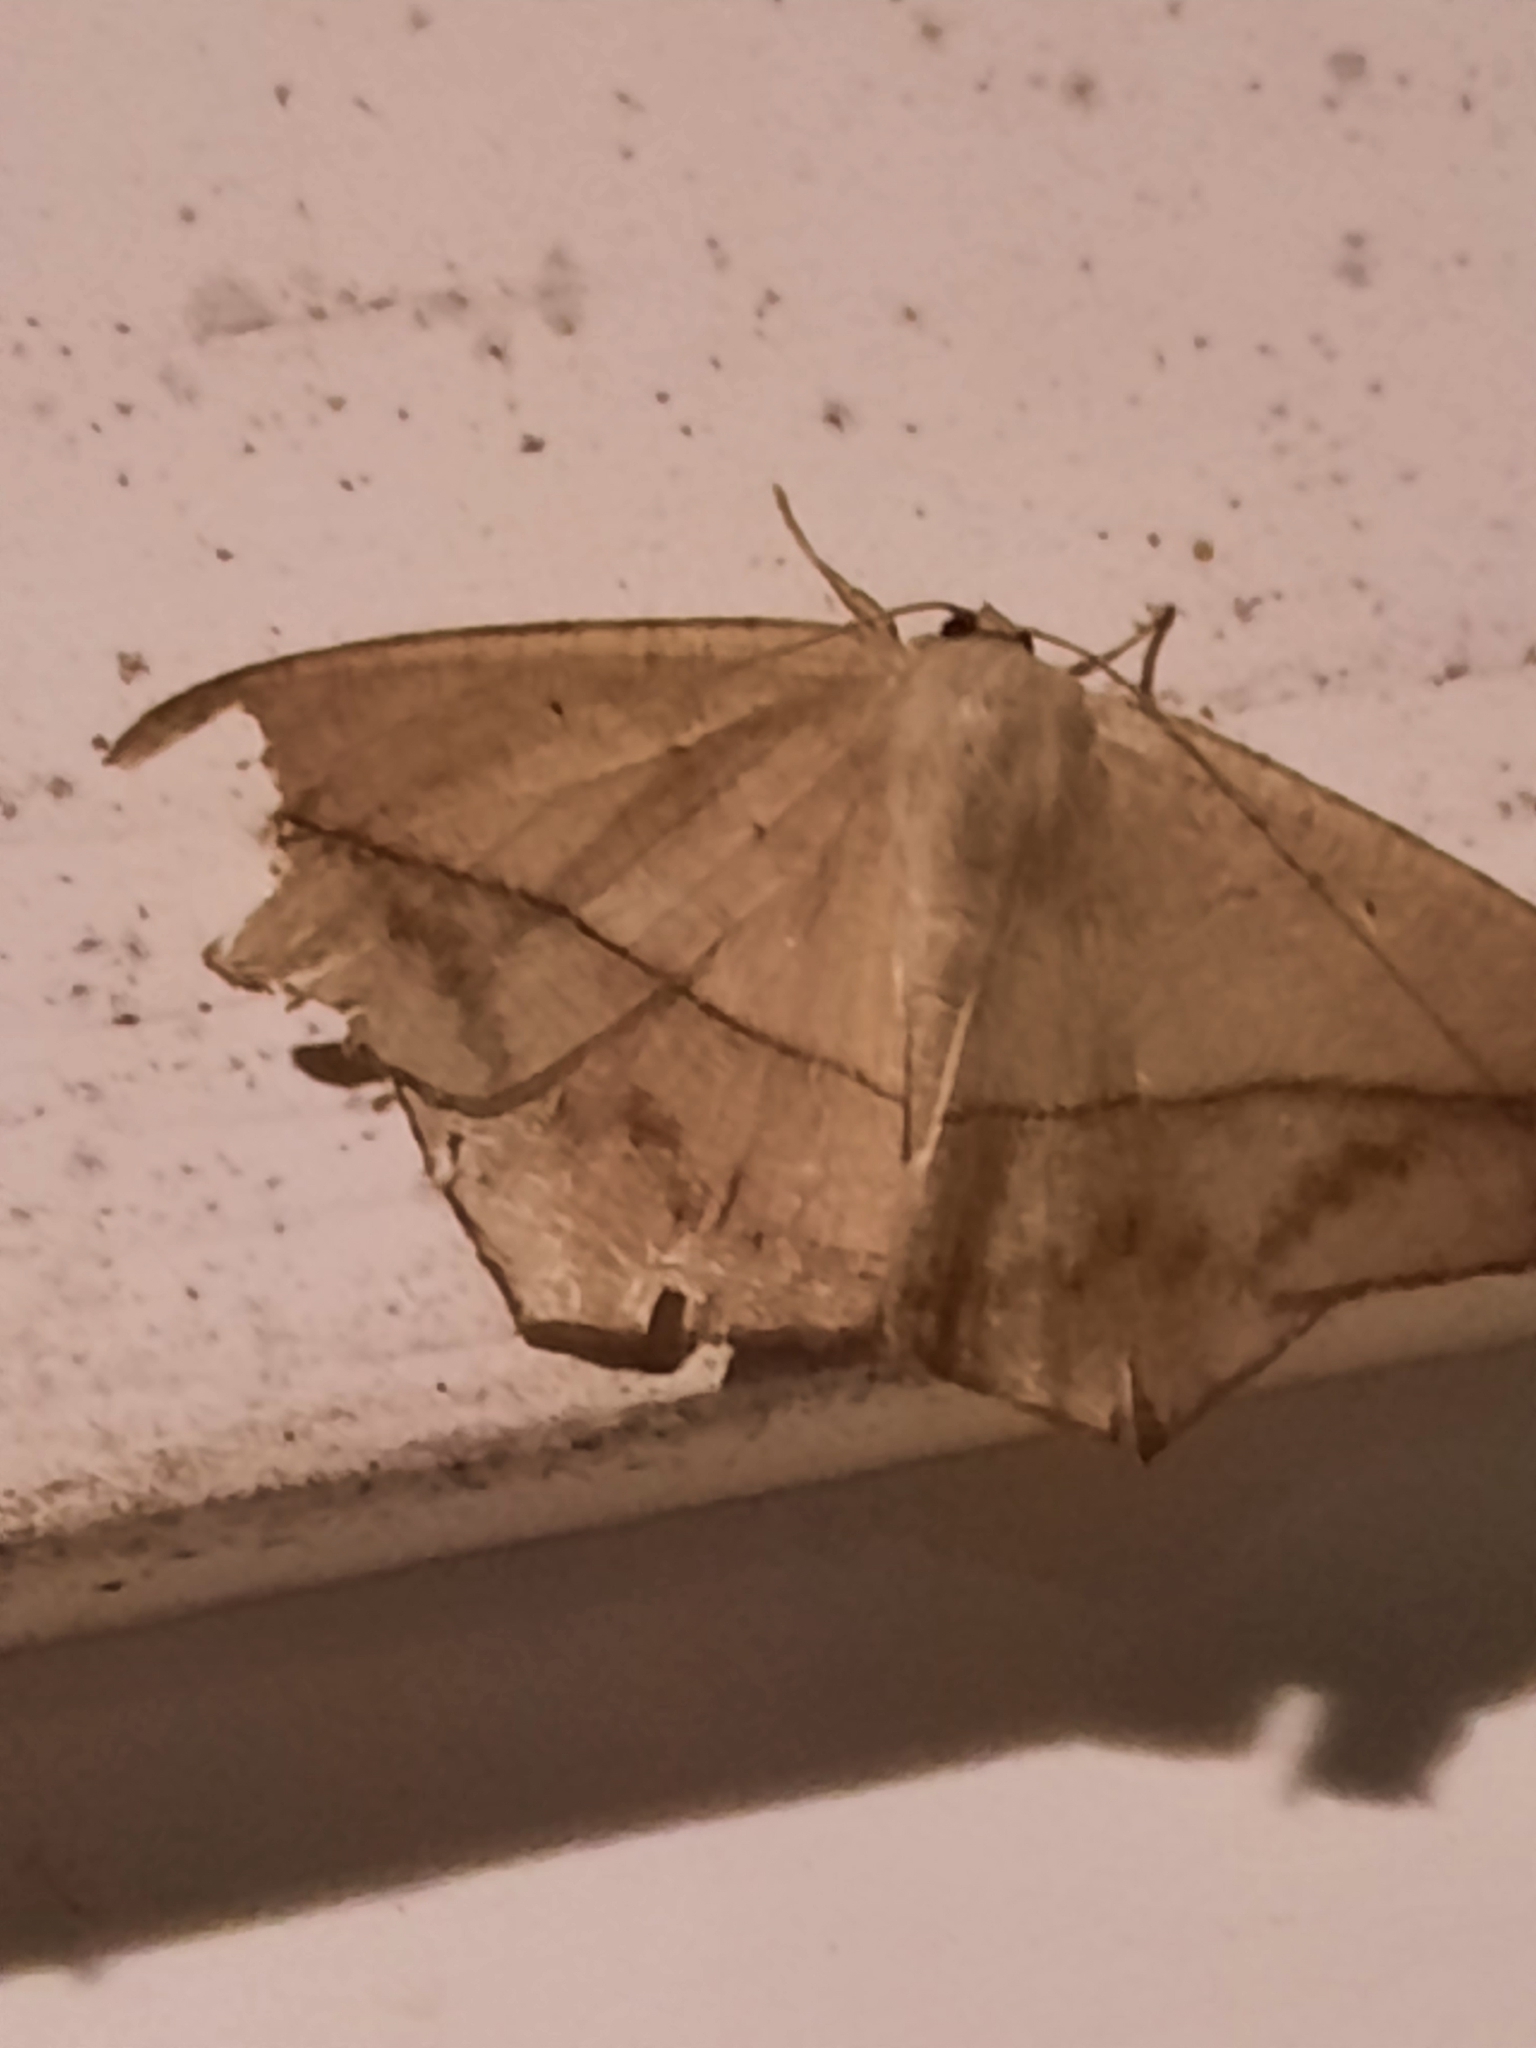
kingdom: Animalia
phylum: Arthropoda
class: Insecta
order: Lepidoptera
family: Geometridae
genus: Prochoerodes
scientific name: Prochoerodes lineola
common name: Large maple spanworm
